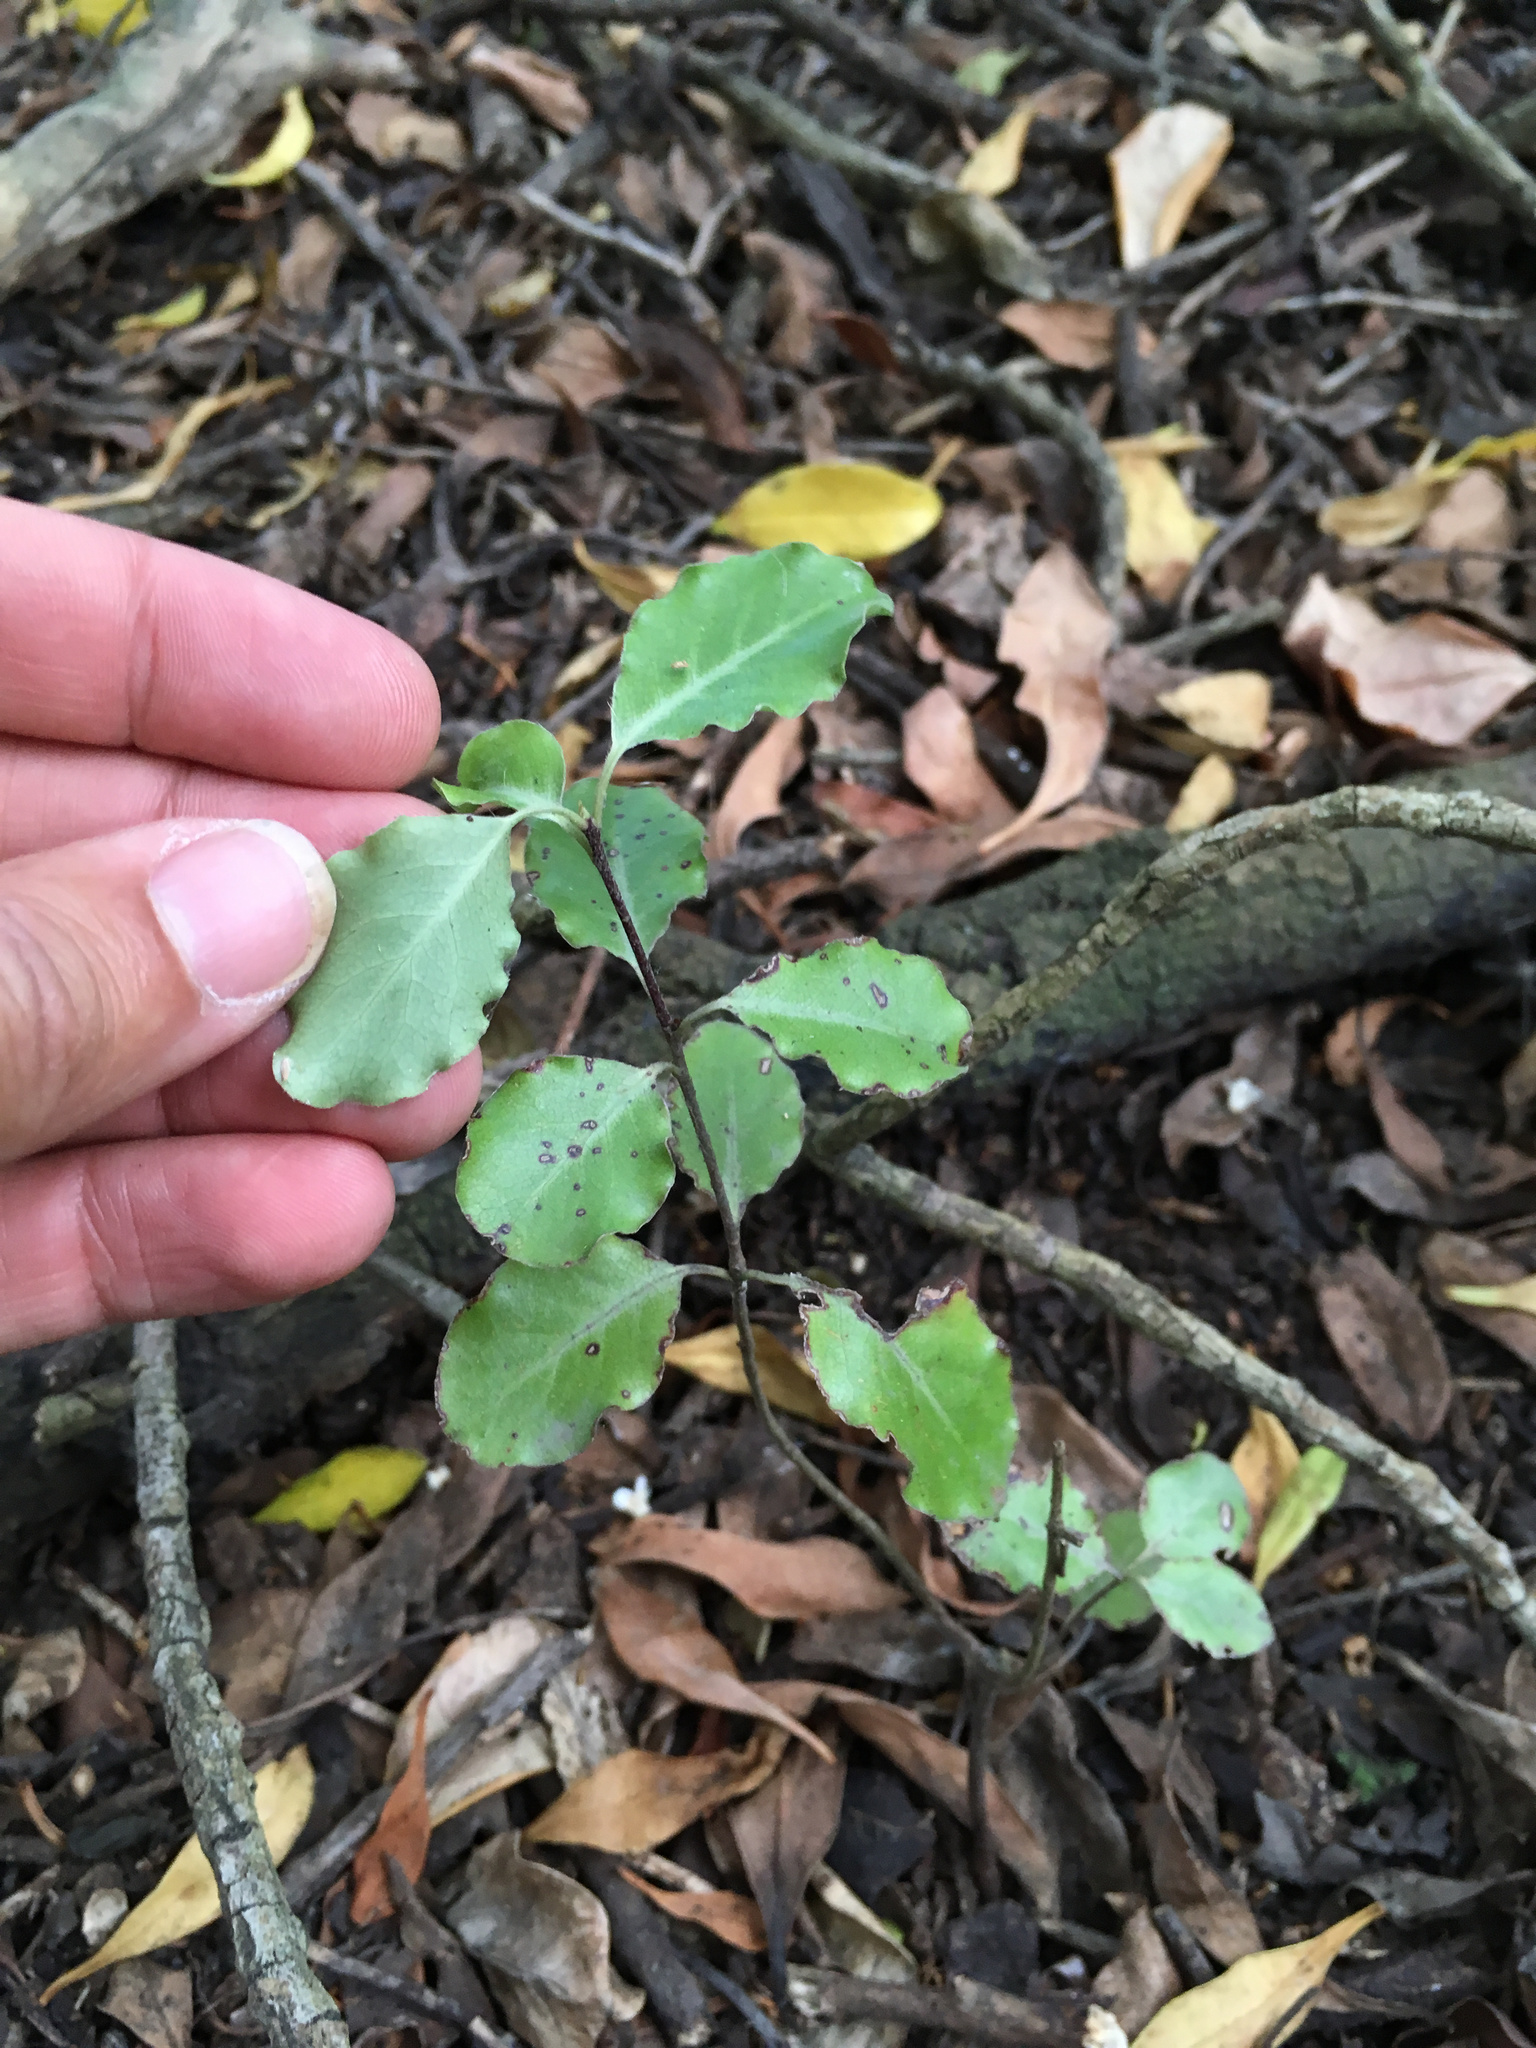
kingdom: Plantae
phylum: Tracheophyta
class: Magnoliopsida
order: Apiales
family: Pittosporaceae
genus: Pittosporum
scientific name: Pittosporum tenuifolium
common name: Kohuhu
